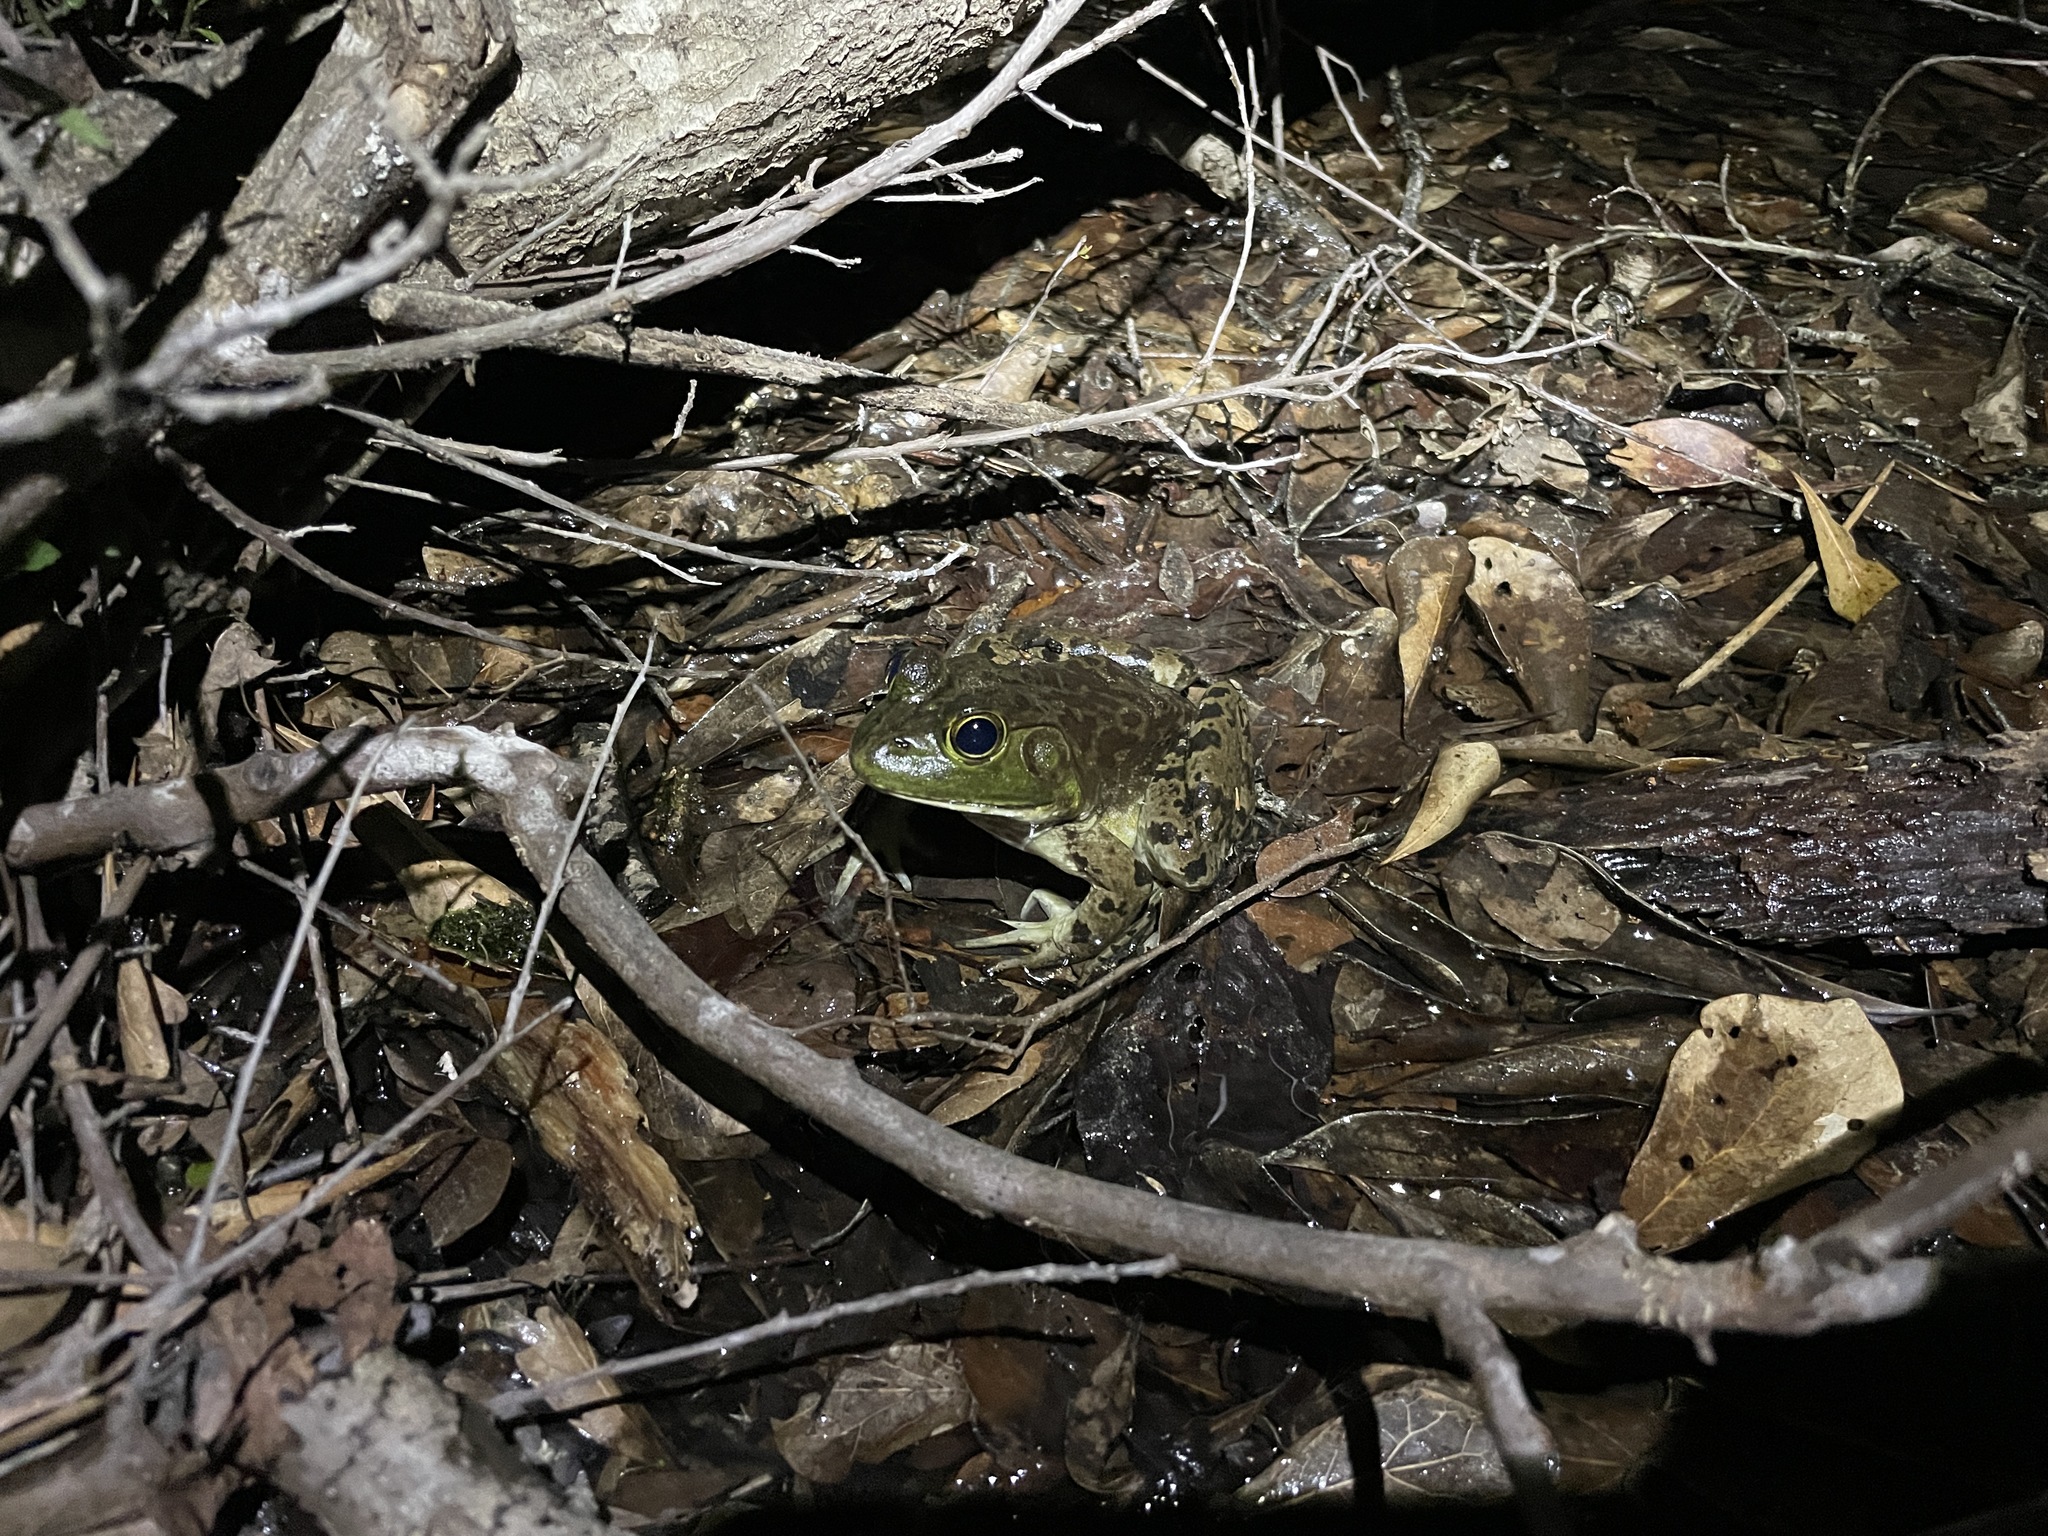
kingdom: Animalia
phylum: Chordata
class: Amphibia
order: Anura
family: Ranidae
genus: Lithobates
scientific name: Lithobates catesbeianus
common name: American bullfrog
